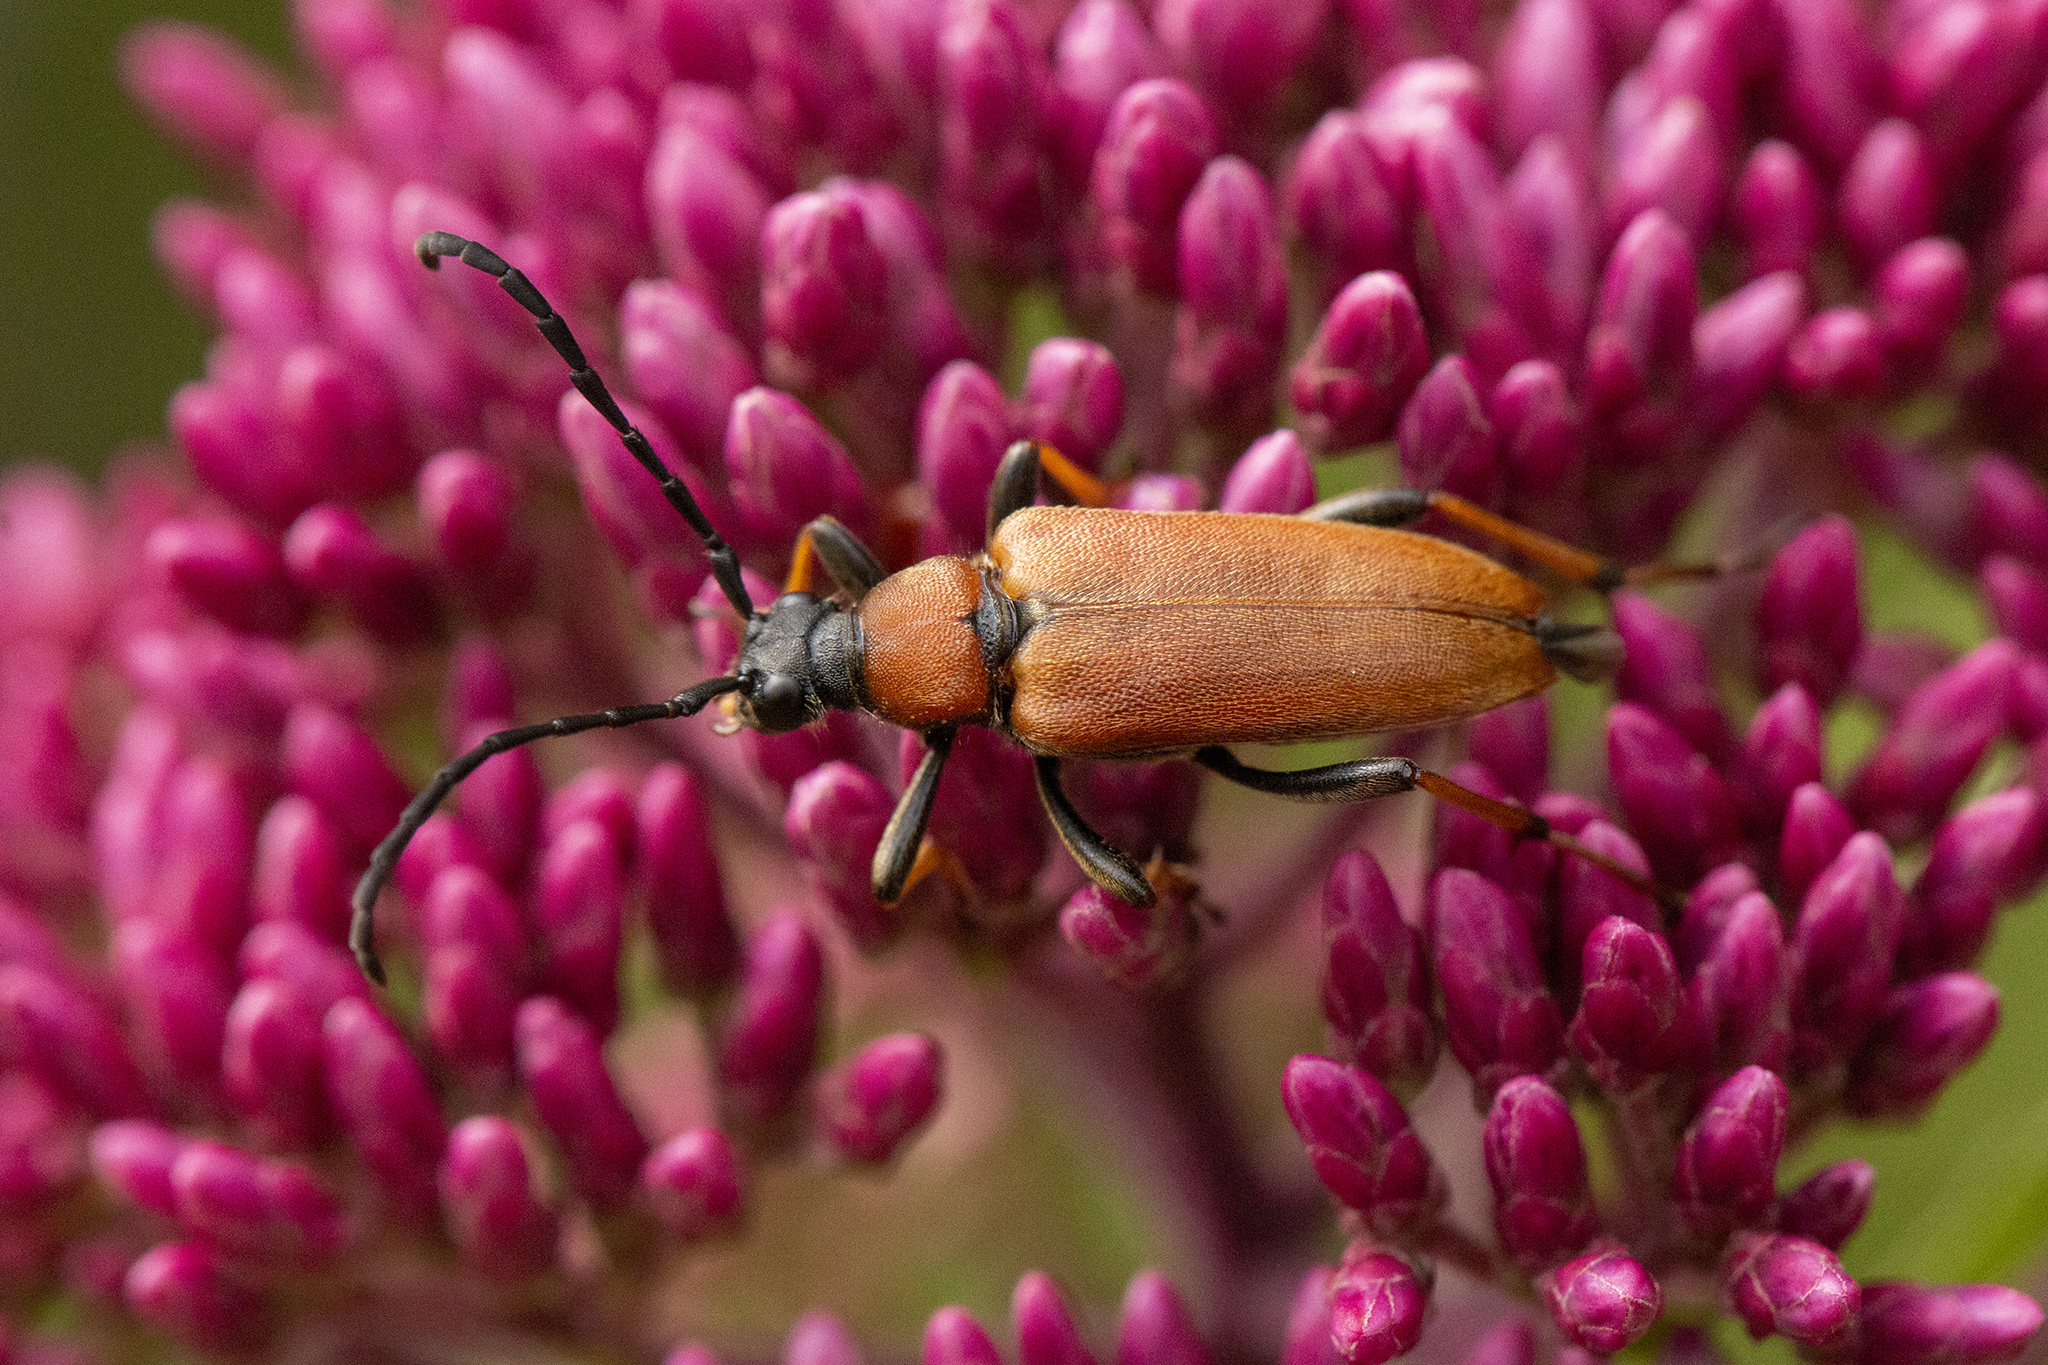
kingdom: Animalia
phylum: Arthropoda
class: Insecta
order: Coleoptera
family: Cerambycidae
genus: Stictoleptura
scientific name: Stictoleptura rubra
